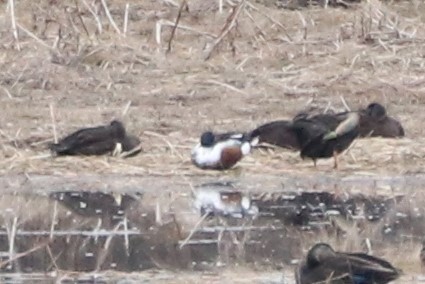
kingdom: Animalia
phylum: Chordata
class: Aves
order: Anseriformes
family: Anatidae
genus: Spatula
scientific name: Spatula clypeata
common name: Northern shoveler
